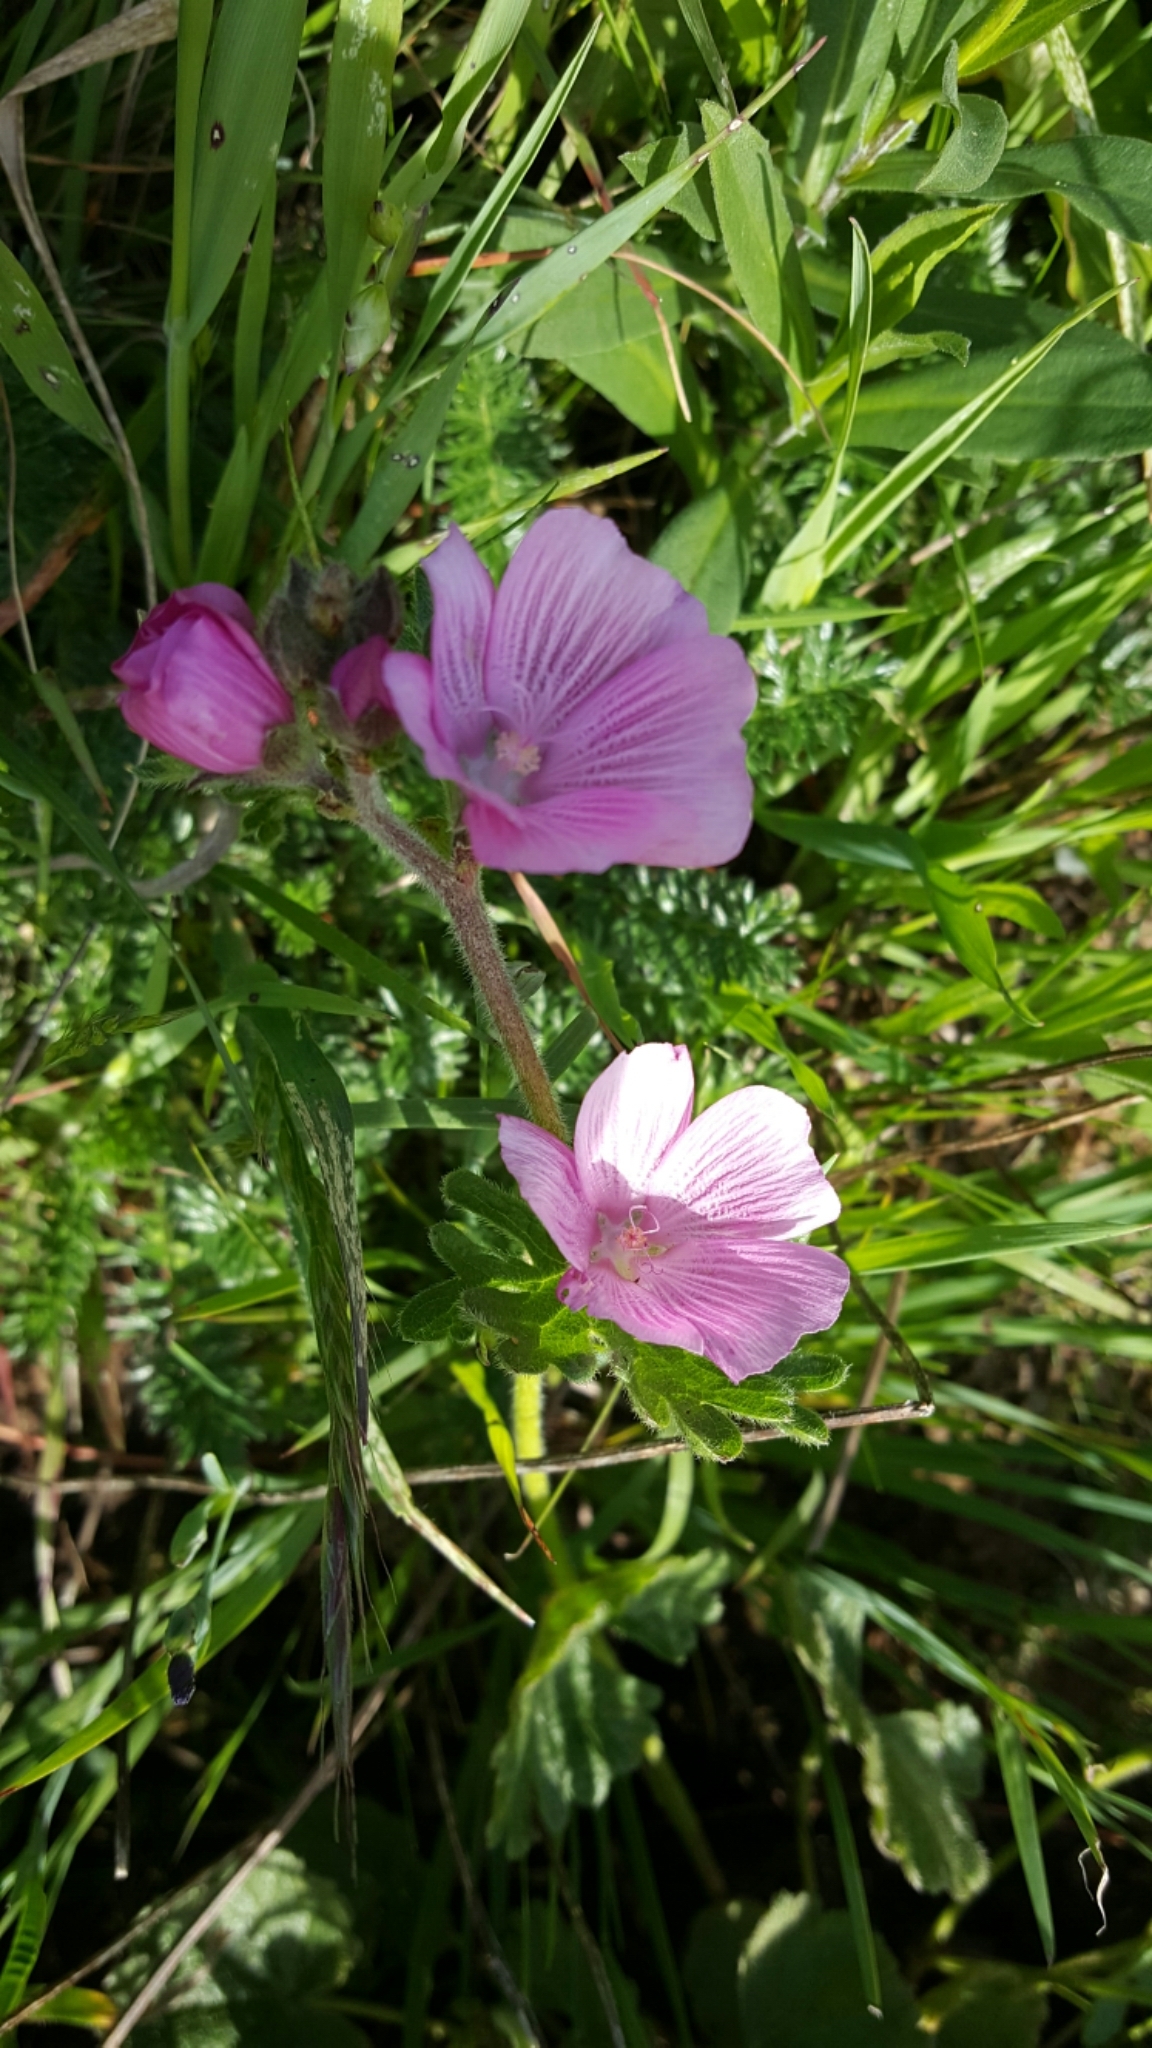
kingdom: Plantae
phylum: Tracheophyta
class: Magnoliopsida
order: Malvales
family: Malvaceae
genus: Sidalcea
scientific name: Sidalcea malviflora
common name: Greek mallow
